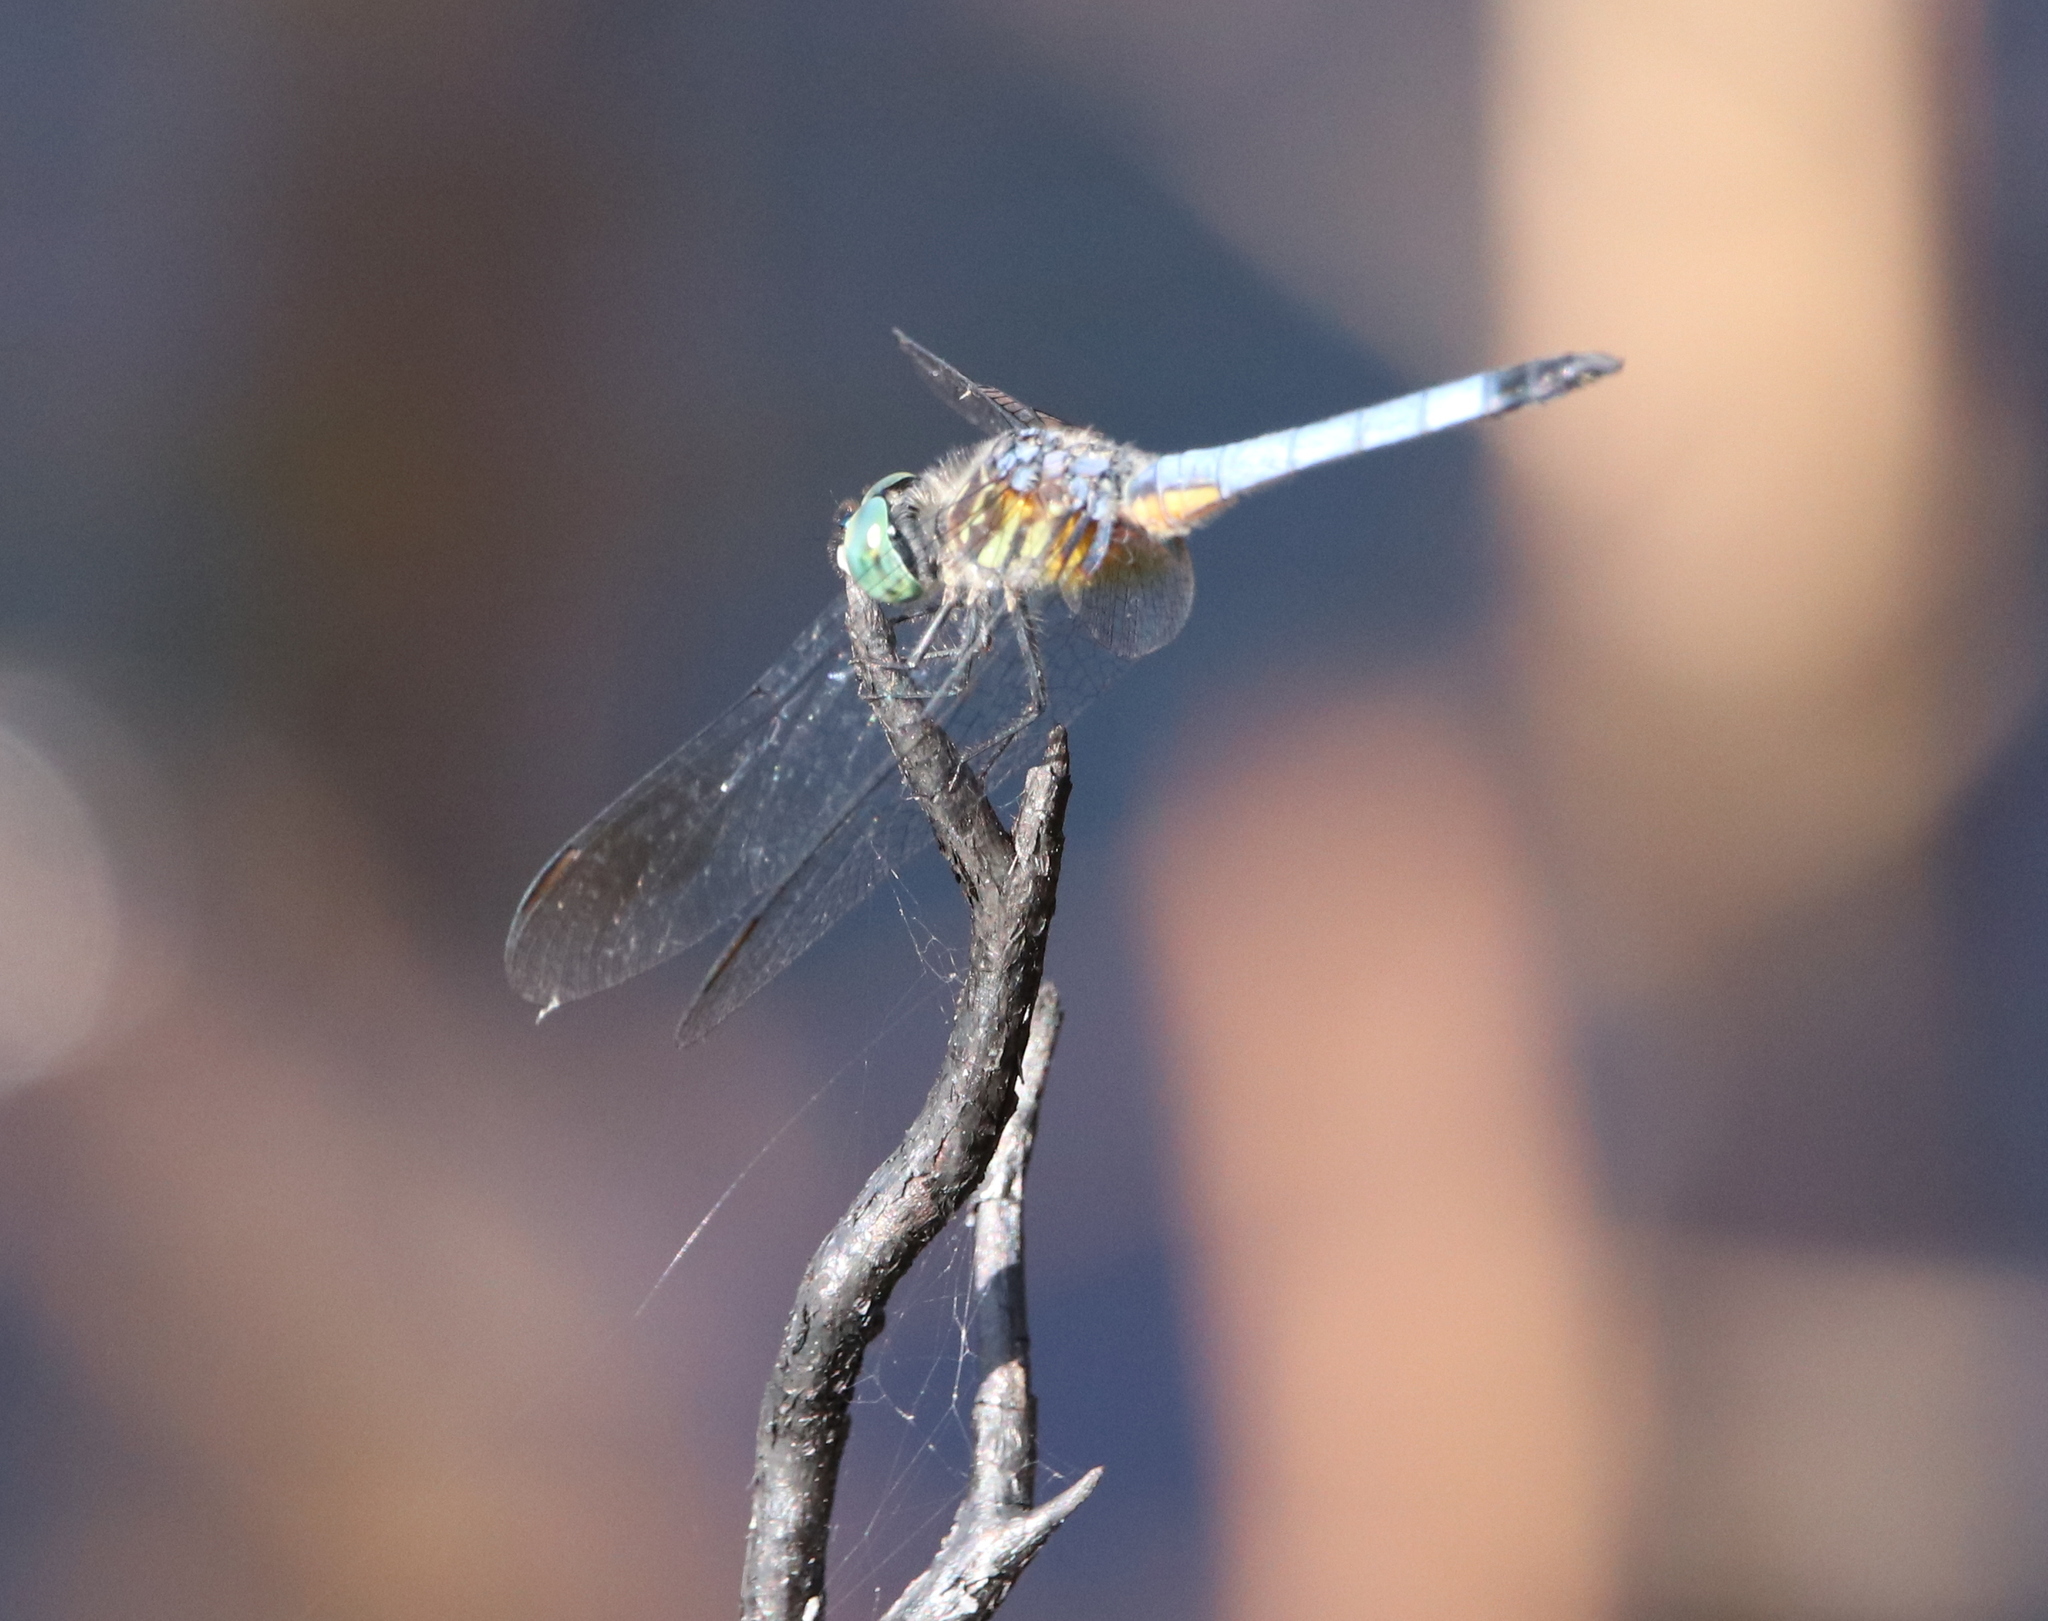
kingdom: Animalia
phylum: Arthropoda
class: Insecta
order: Odonata
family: Libellulidae
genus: Pachydiplax
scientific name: Pachydiplax longipennis
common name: Blue dasher
